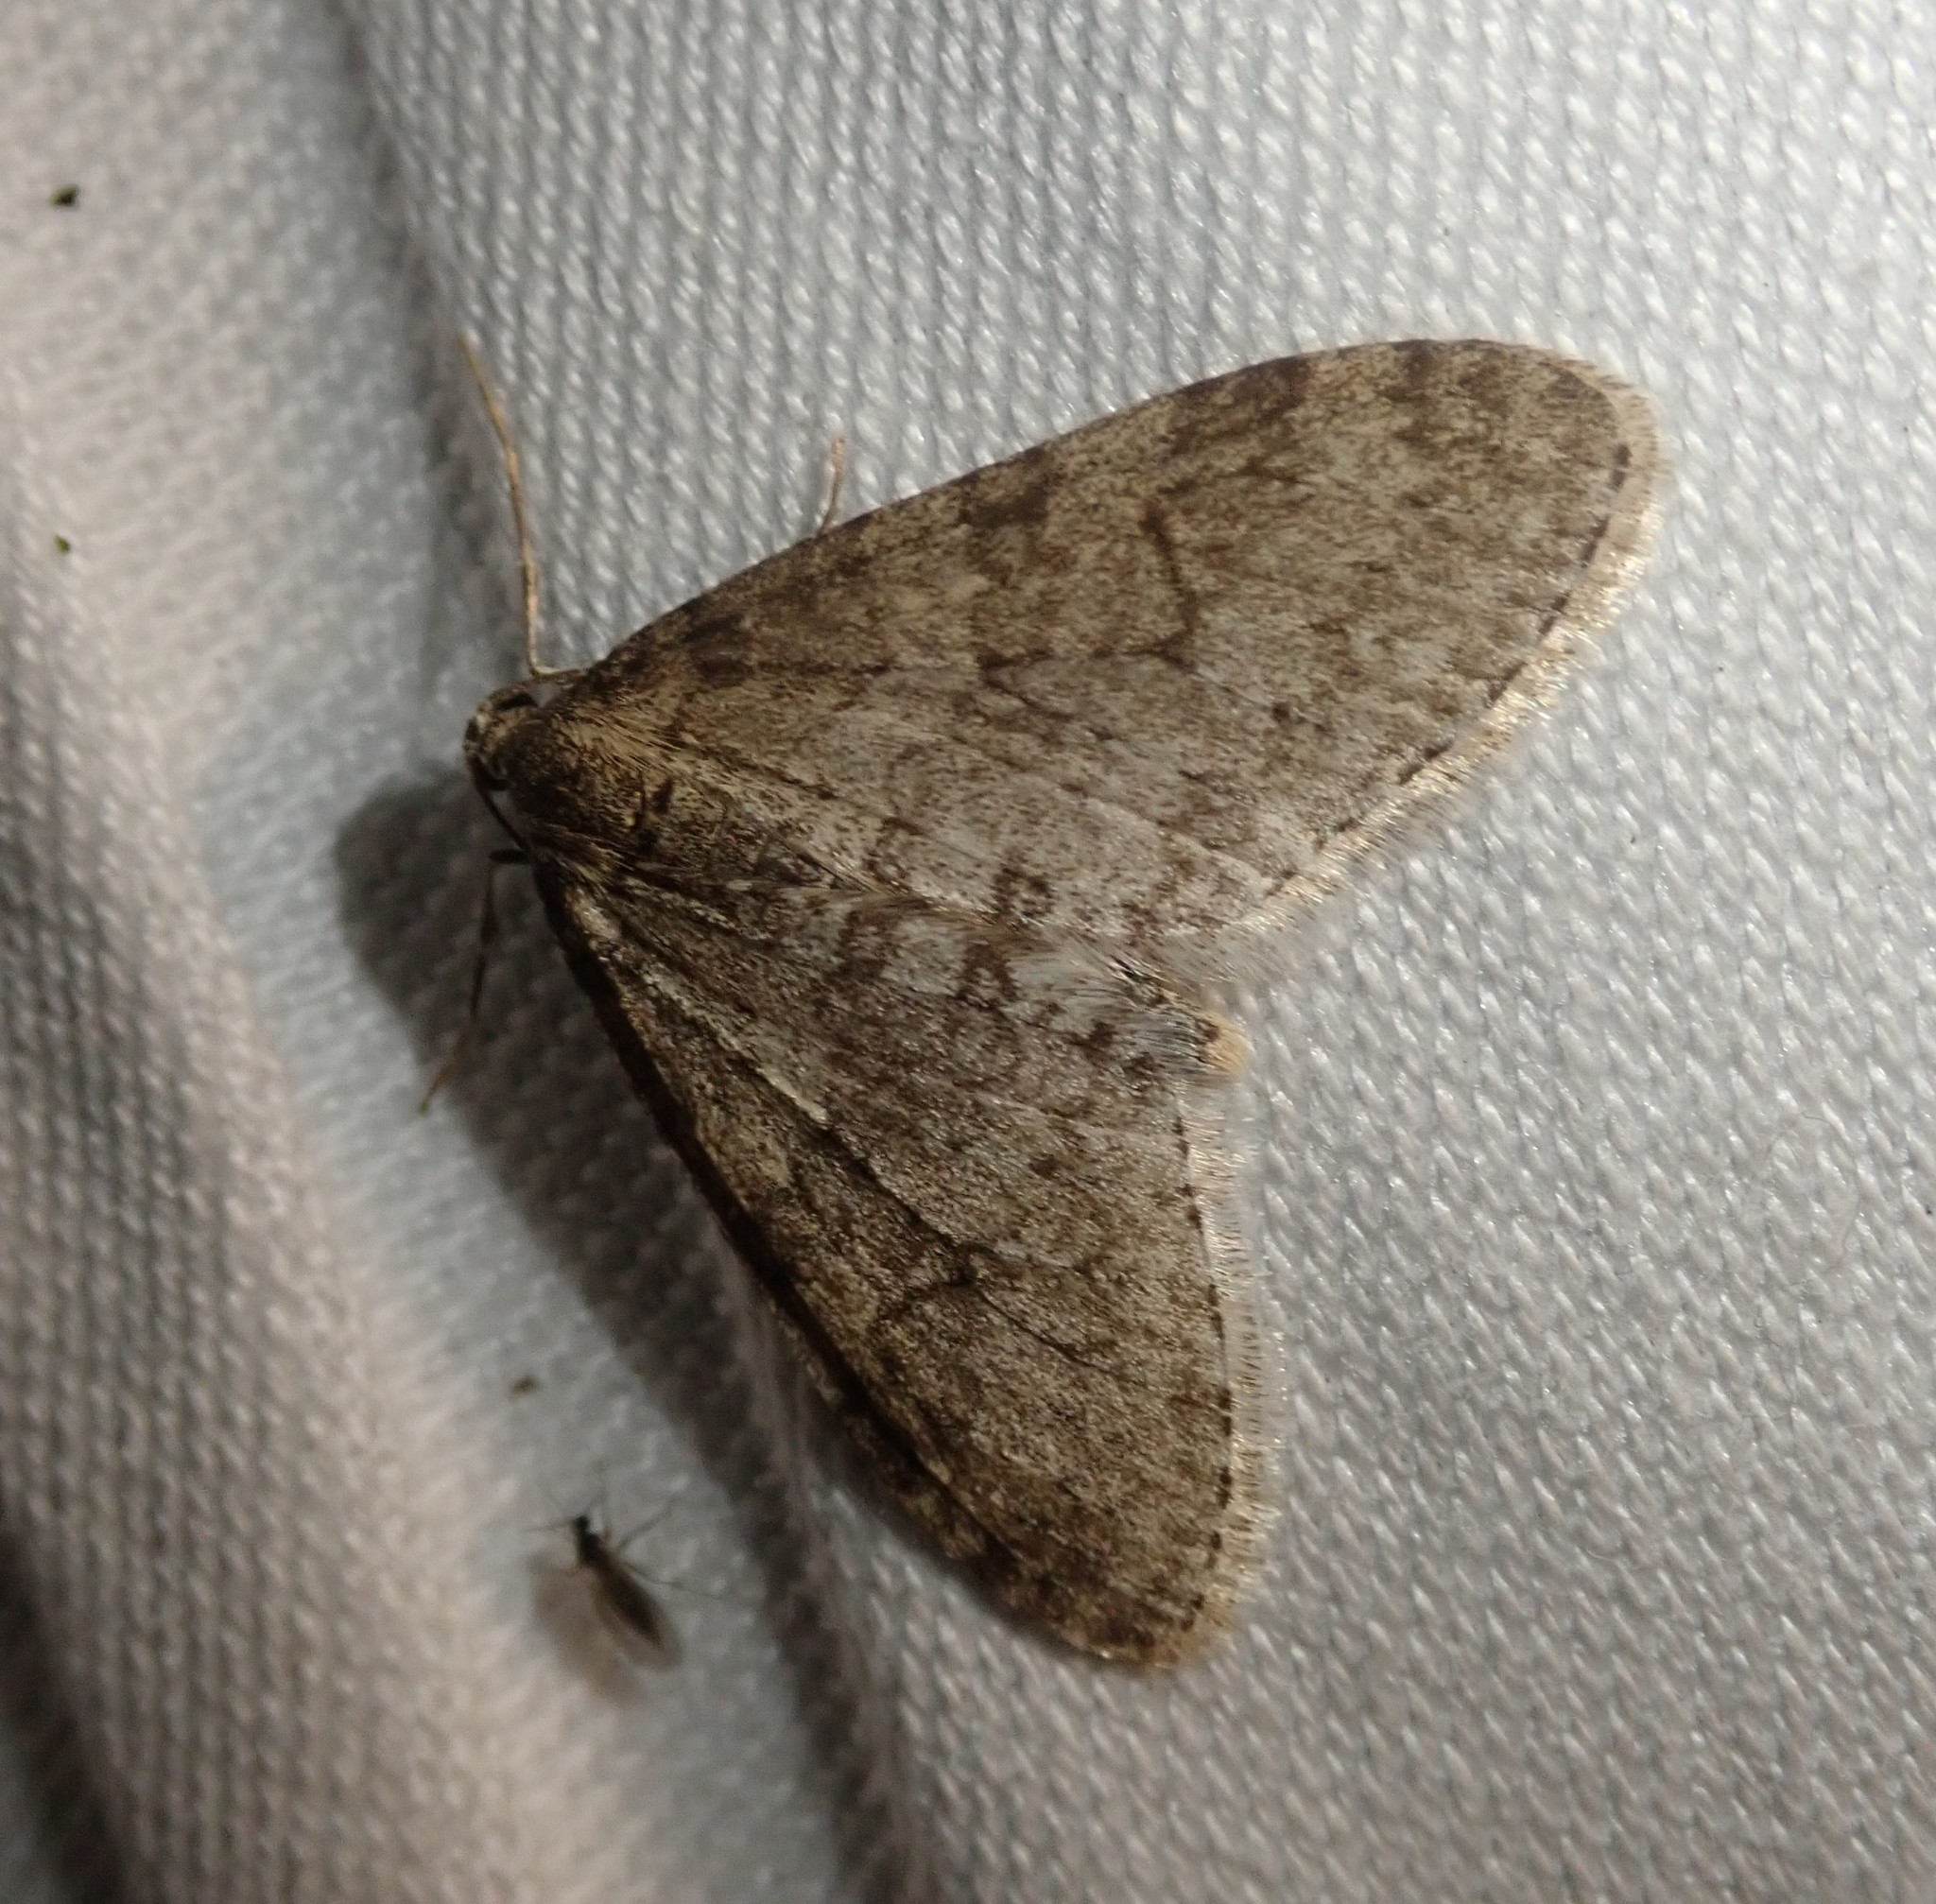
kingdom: Animalia
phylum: Arthropoda
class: Insecta
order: Lepidoptera
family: Geometridae
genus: Trichopteryx
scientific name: Trichopteryx carpinata
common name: Early tooth-striped
